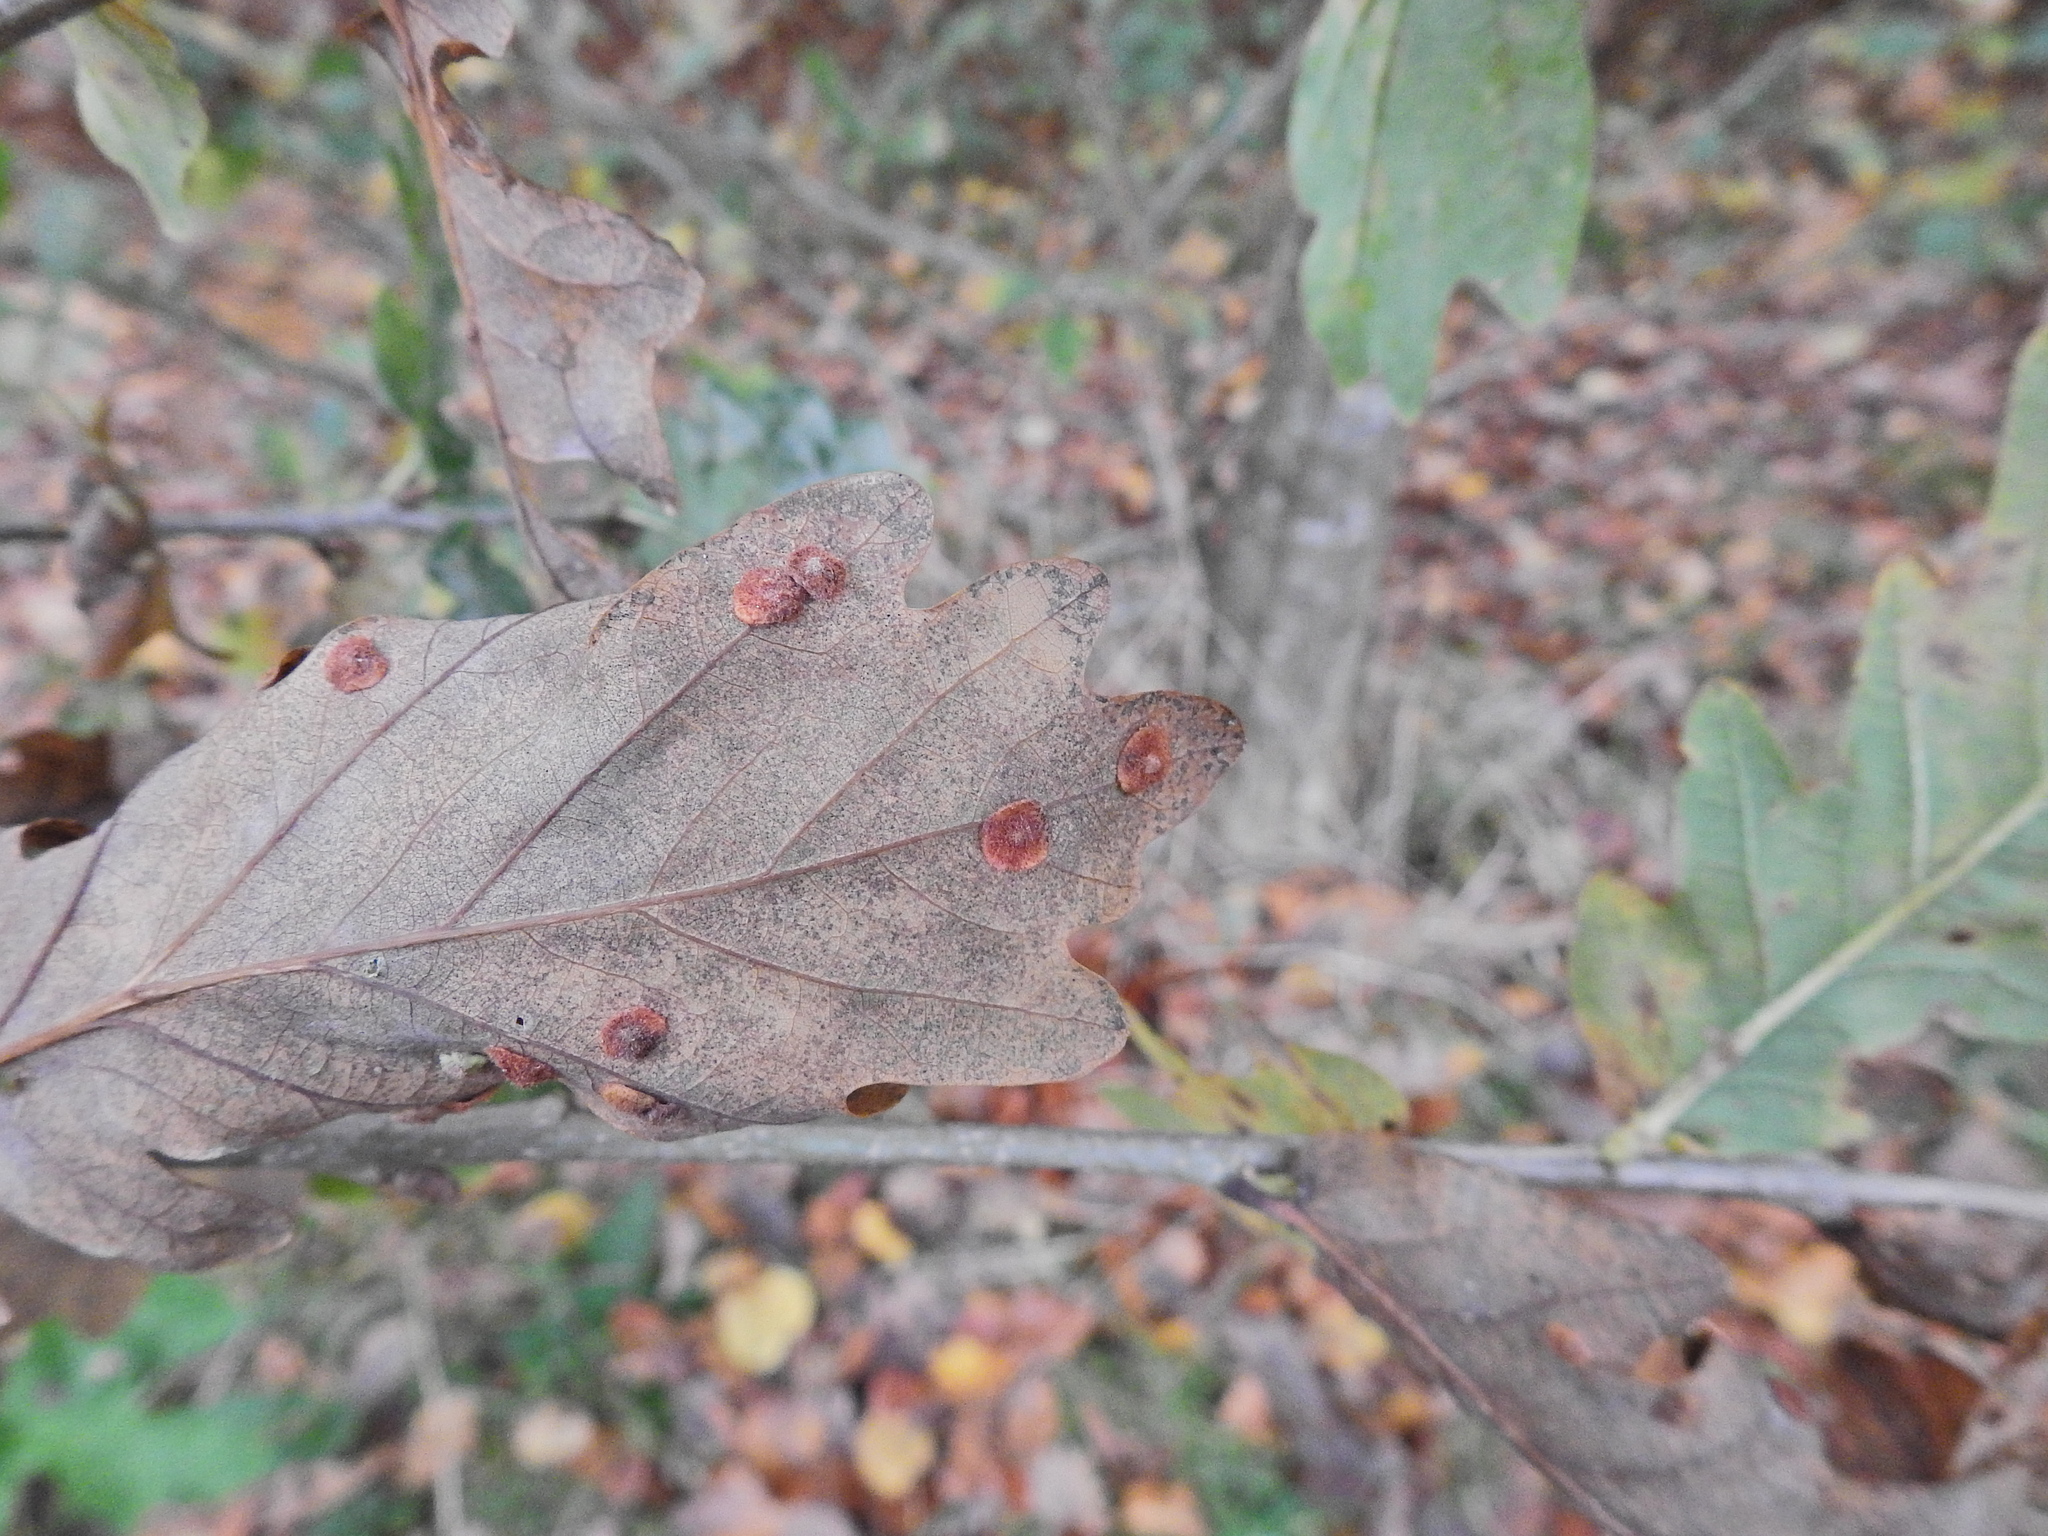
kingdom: Animalia
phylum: Arthropoda
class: Insecta
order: Hymenoptera
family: Cynipidae
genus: Neuroterus
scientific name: Neuroterus quercusbaccarum
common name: Common spangle gall
